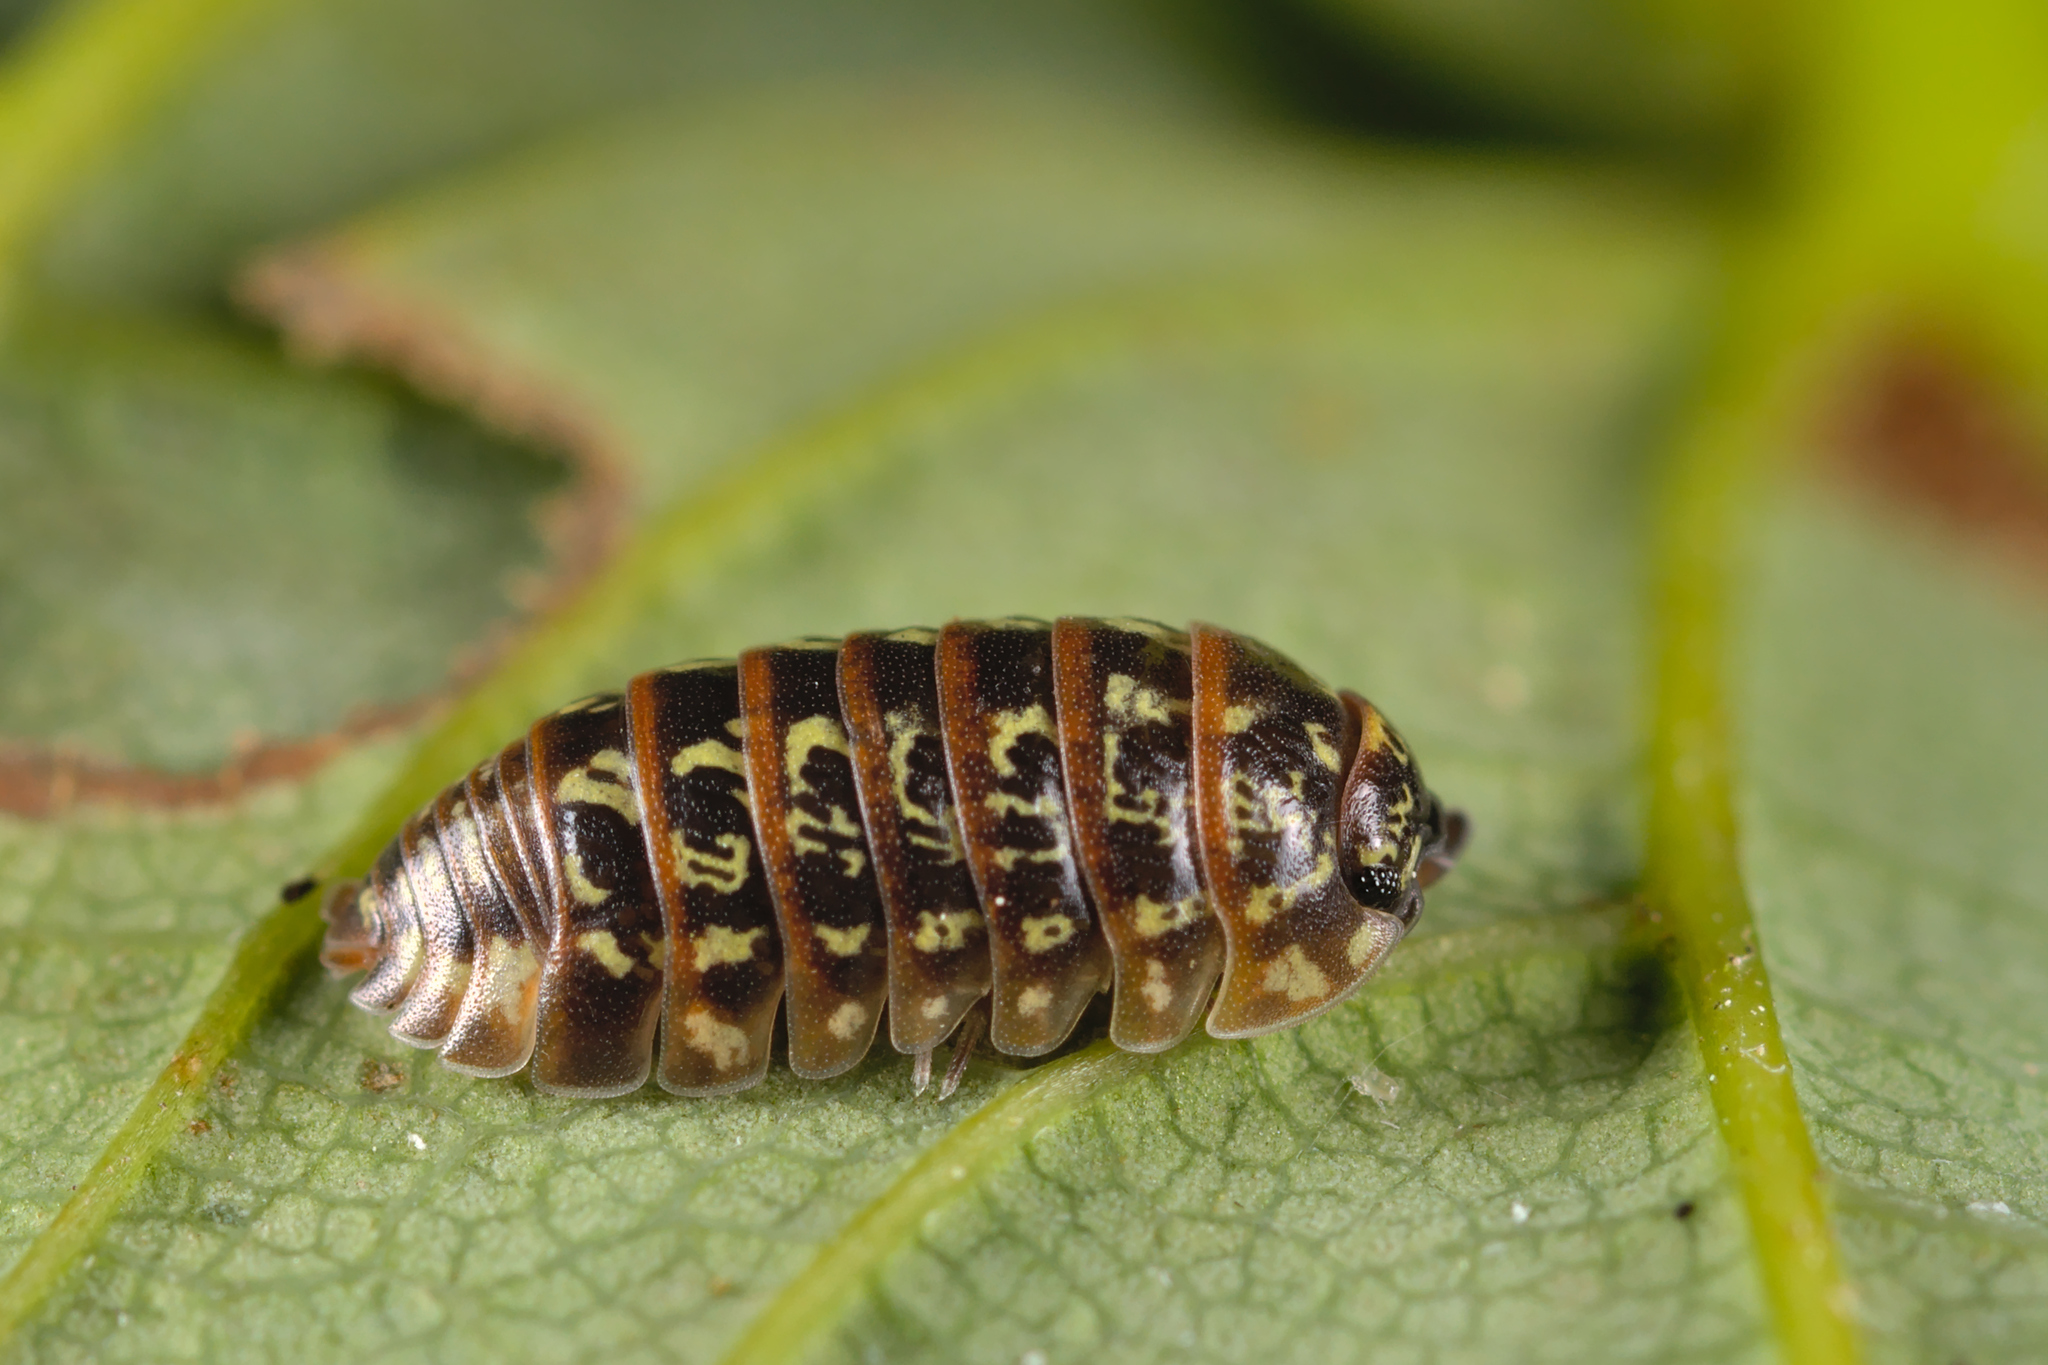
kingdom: Animalia
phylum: Arthropoda
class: Malacostraca
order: Isopoda
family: Armadillidiidae
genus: Armadillidium
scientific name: Armadillidium pictum
